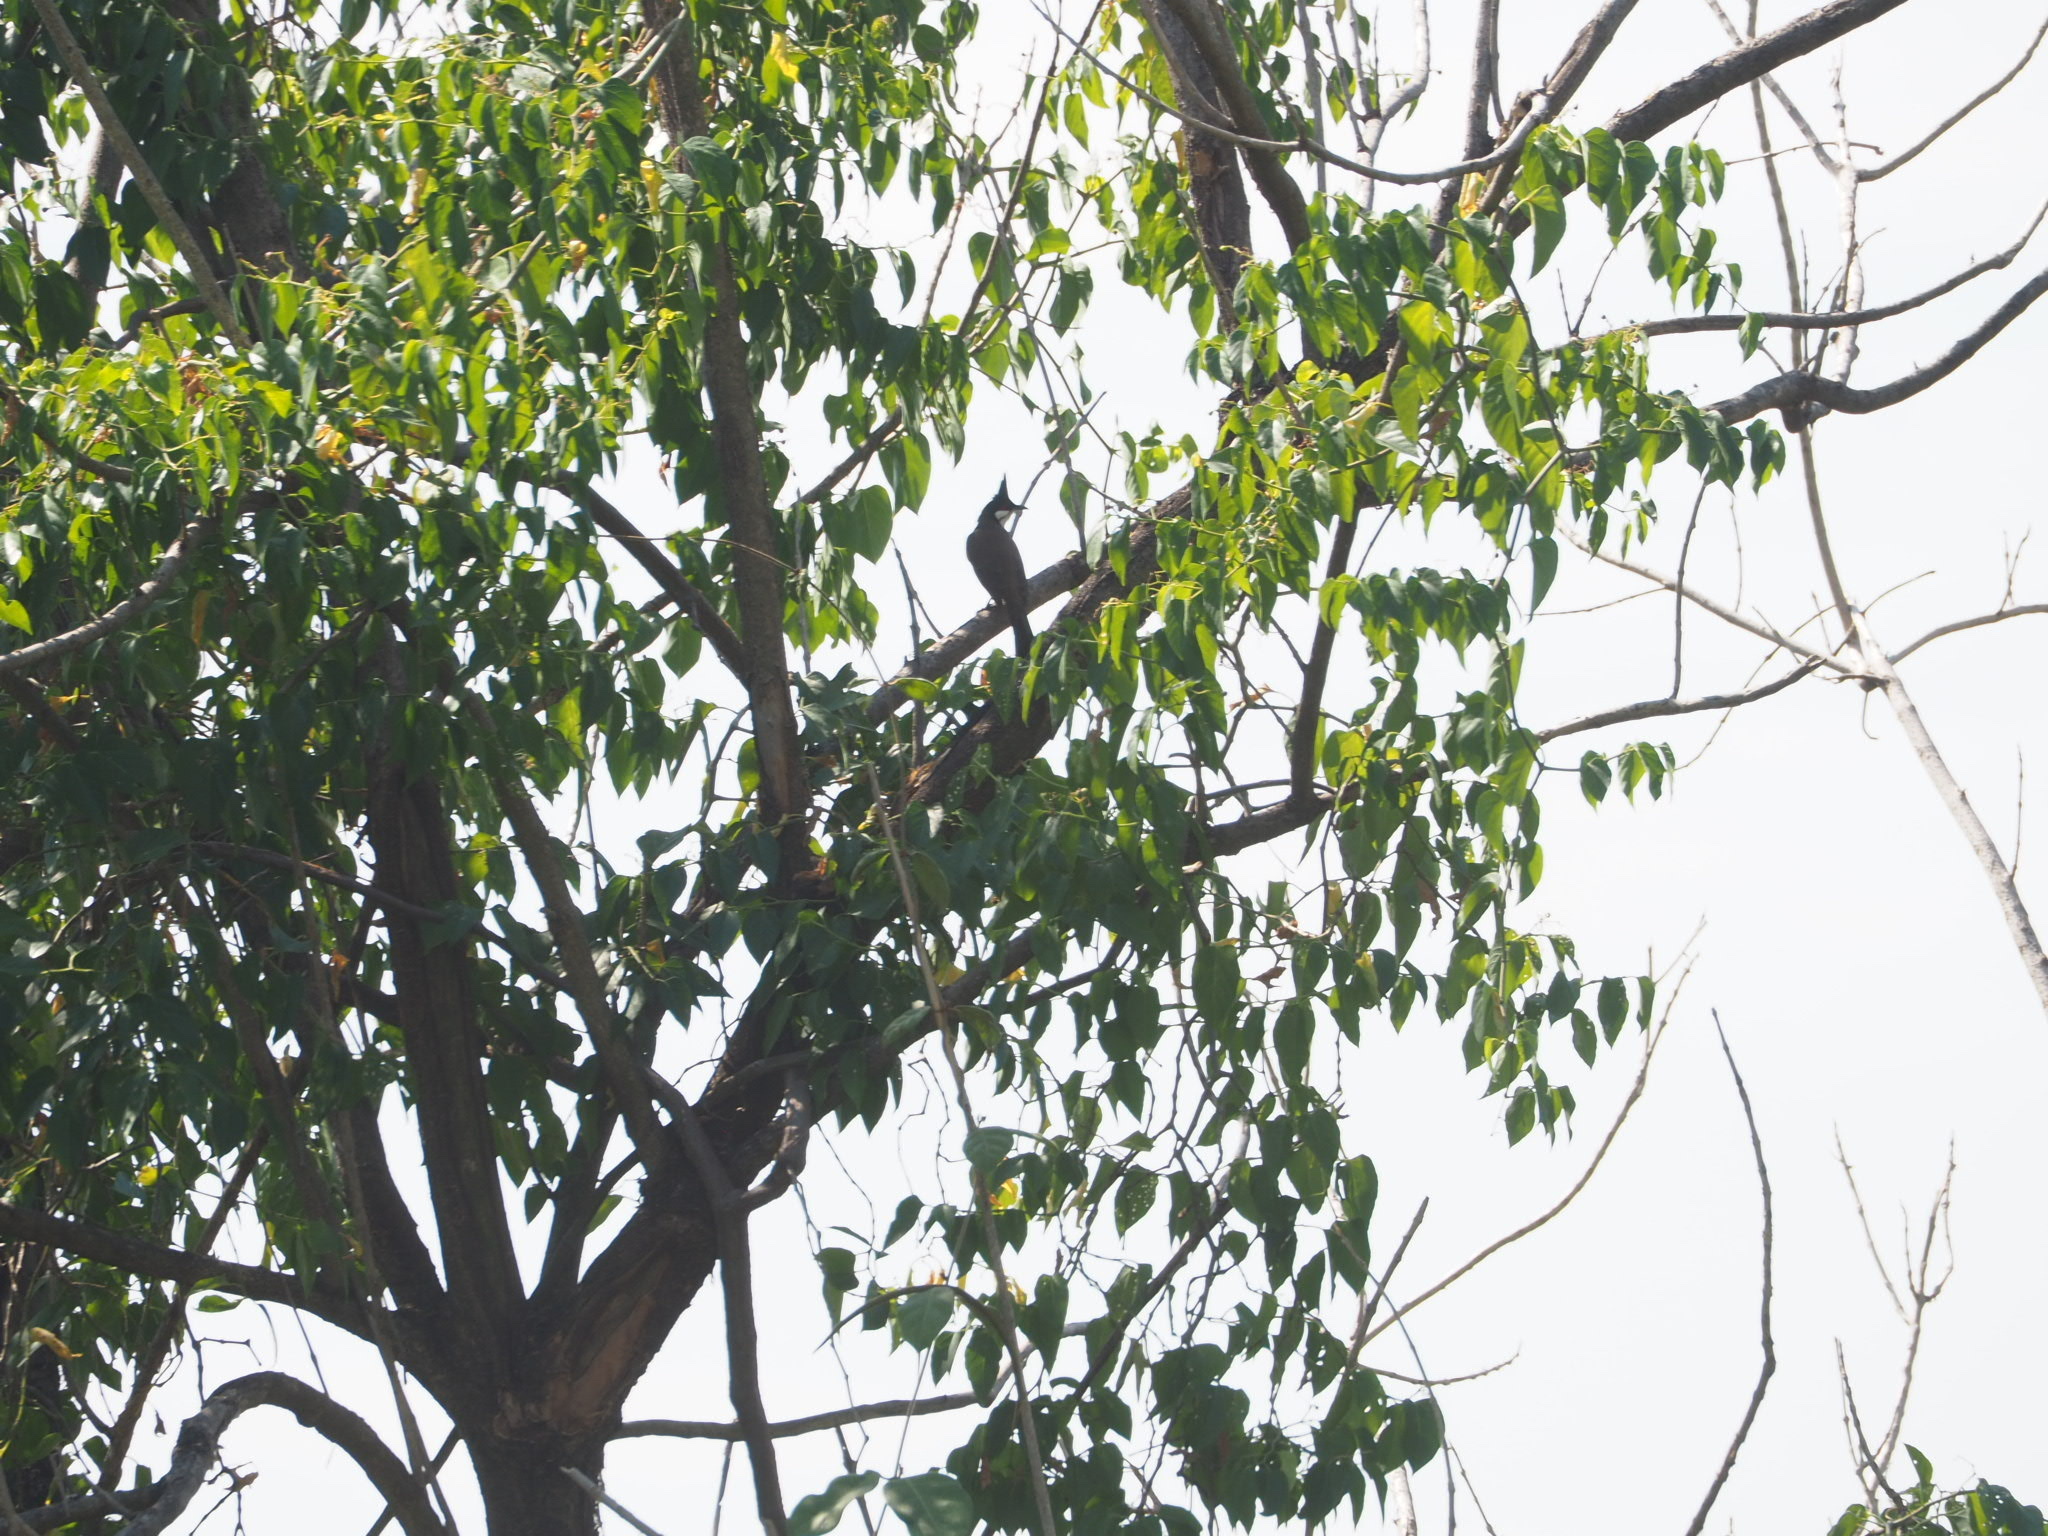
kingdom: Animalia
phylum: Chordata
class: Aves
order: Passeriformes
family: Pycnonotidae
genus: Pycnonotus
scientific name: Pycnonotus jocosus
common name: Red-whiskered bulbul
